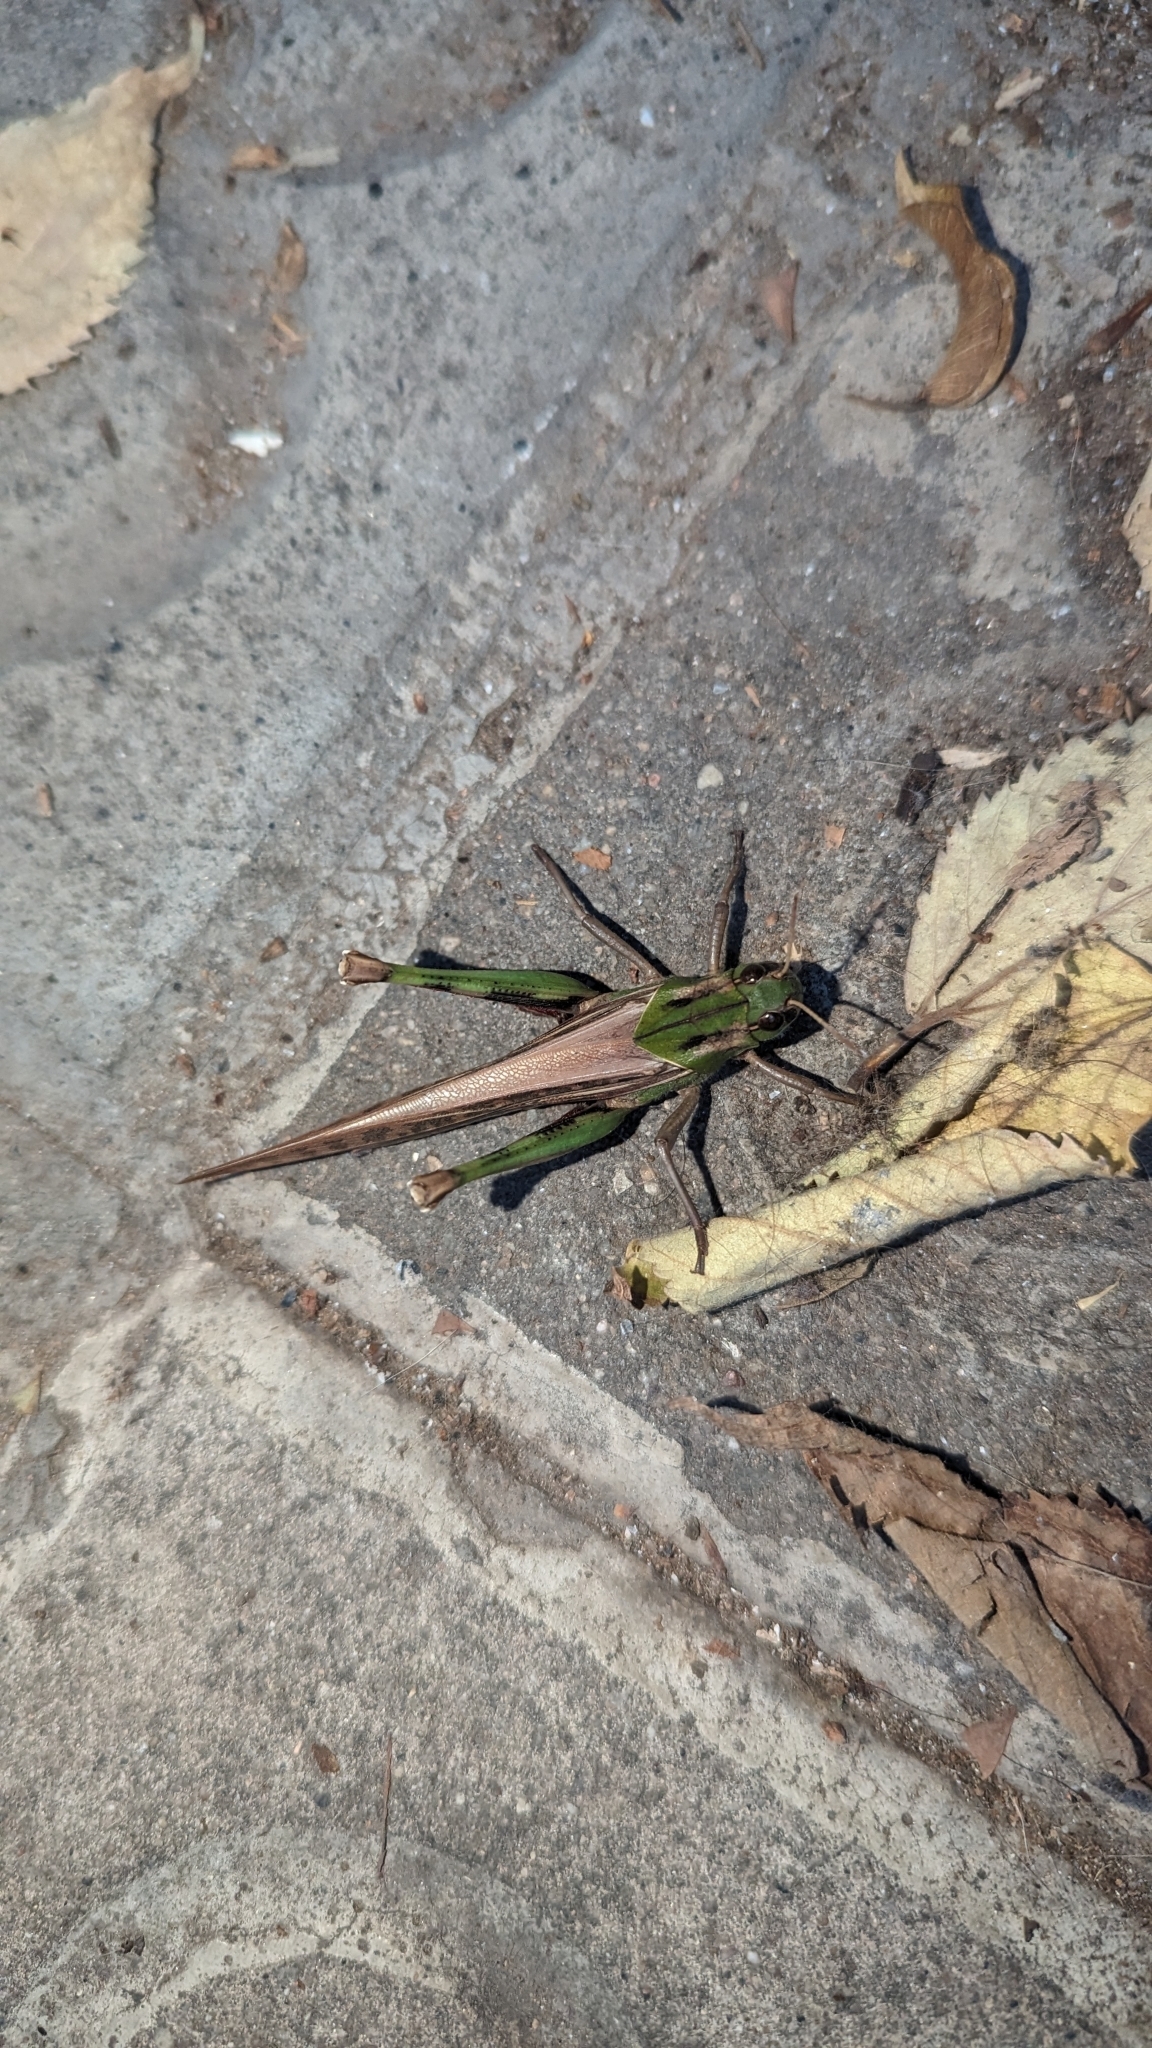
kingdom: Animalia
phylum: Arthropoda
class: Insecta
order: Orthoptera
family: Acrididae
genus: Locusta
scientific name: Locusta migratoria
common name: Migratory locust
